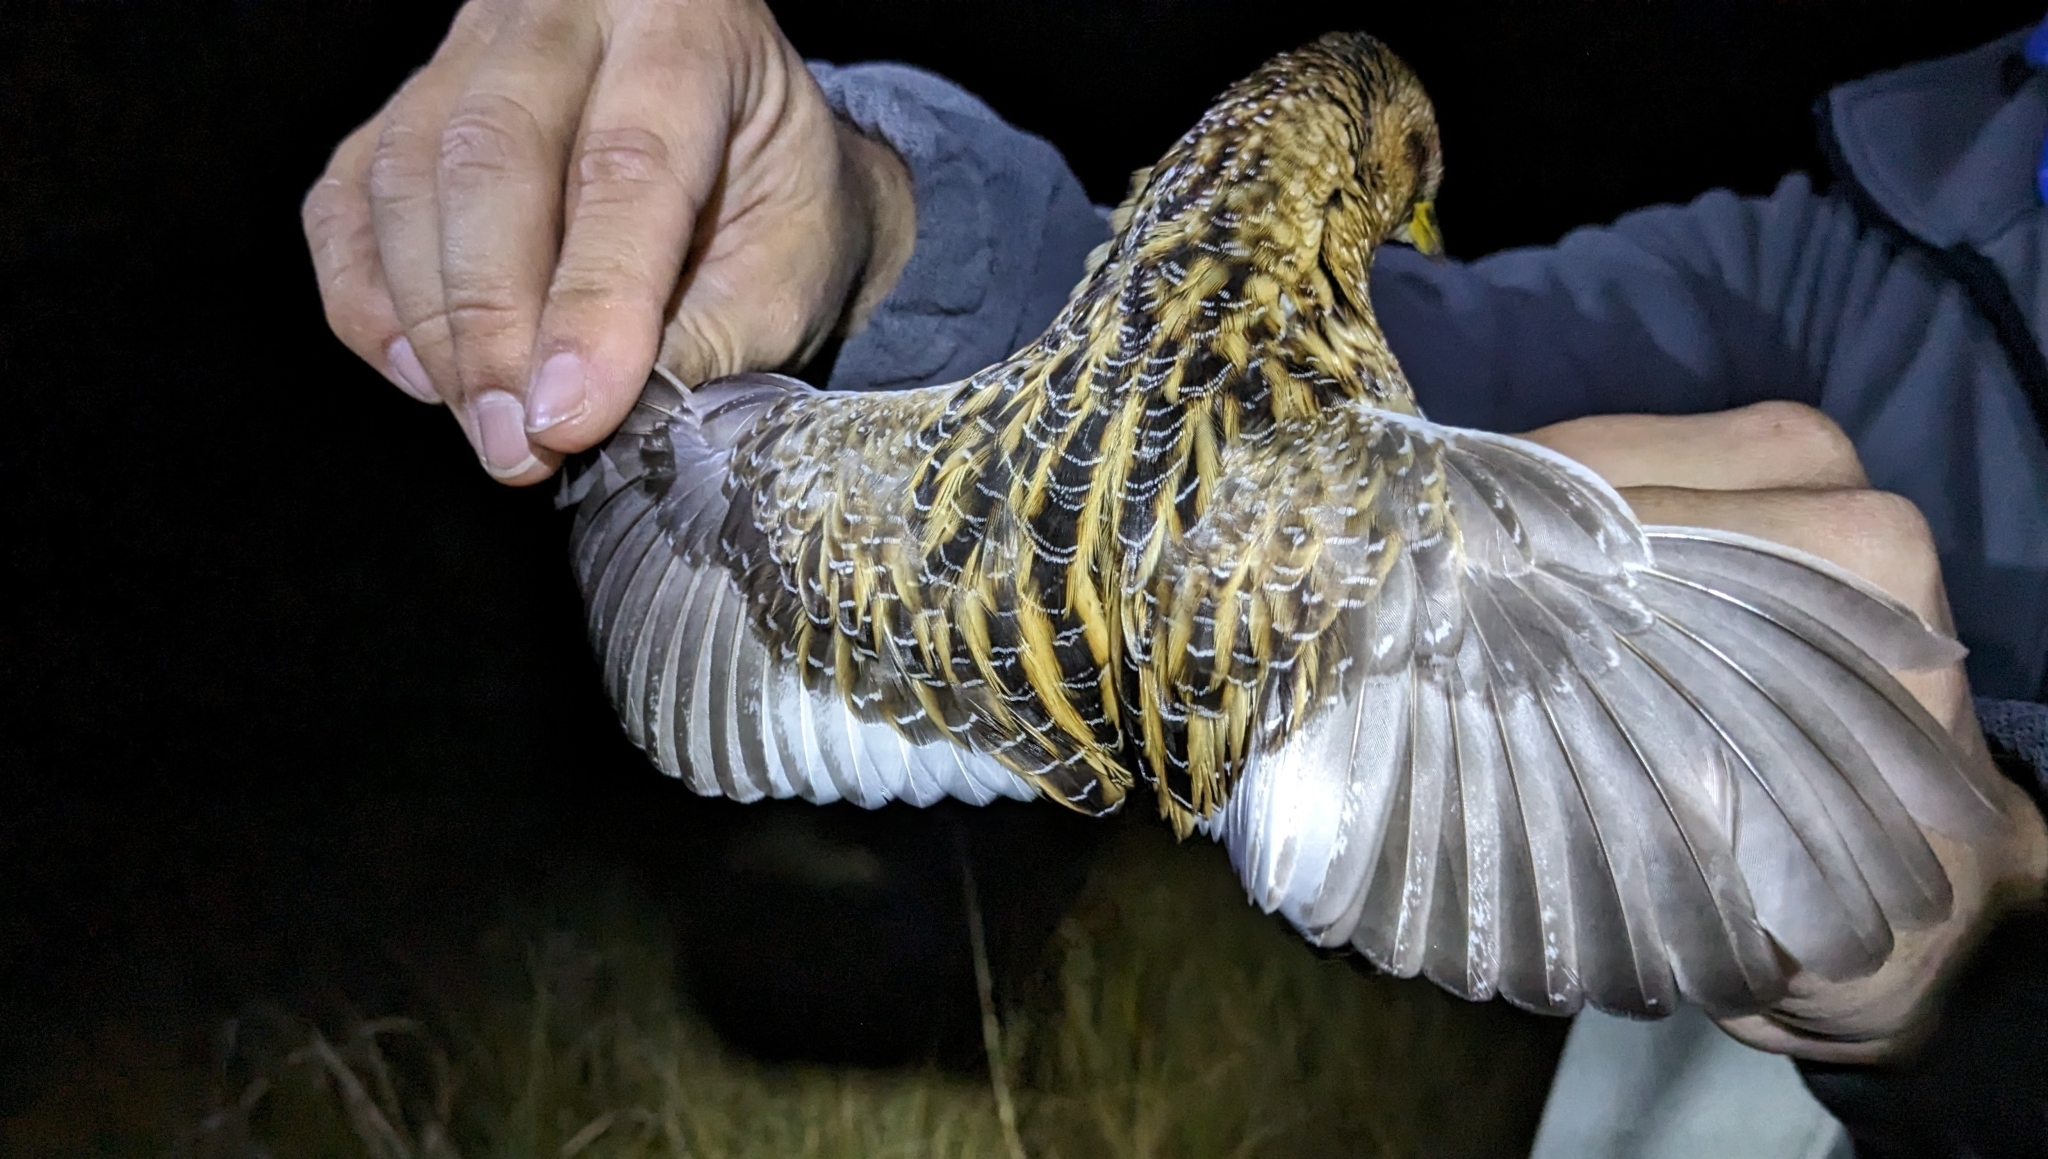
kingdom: Animalia
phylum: Chordata
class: Aves
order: Gruiformes
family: Rallidae
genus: Coturnicops
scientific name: Coturnicops noveboracensis
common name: Yellow rail
